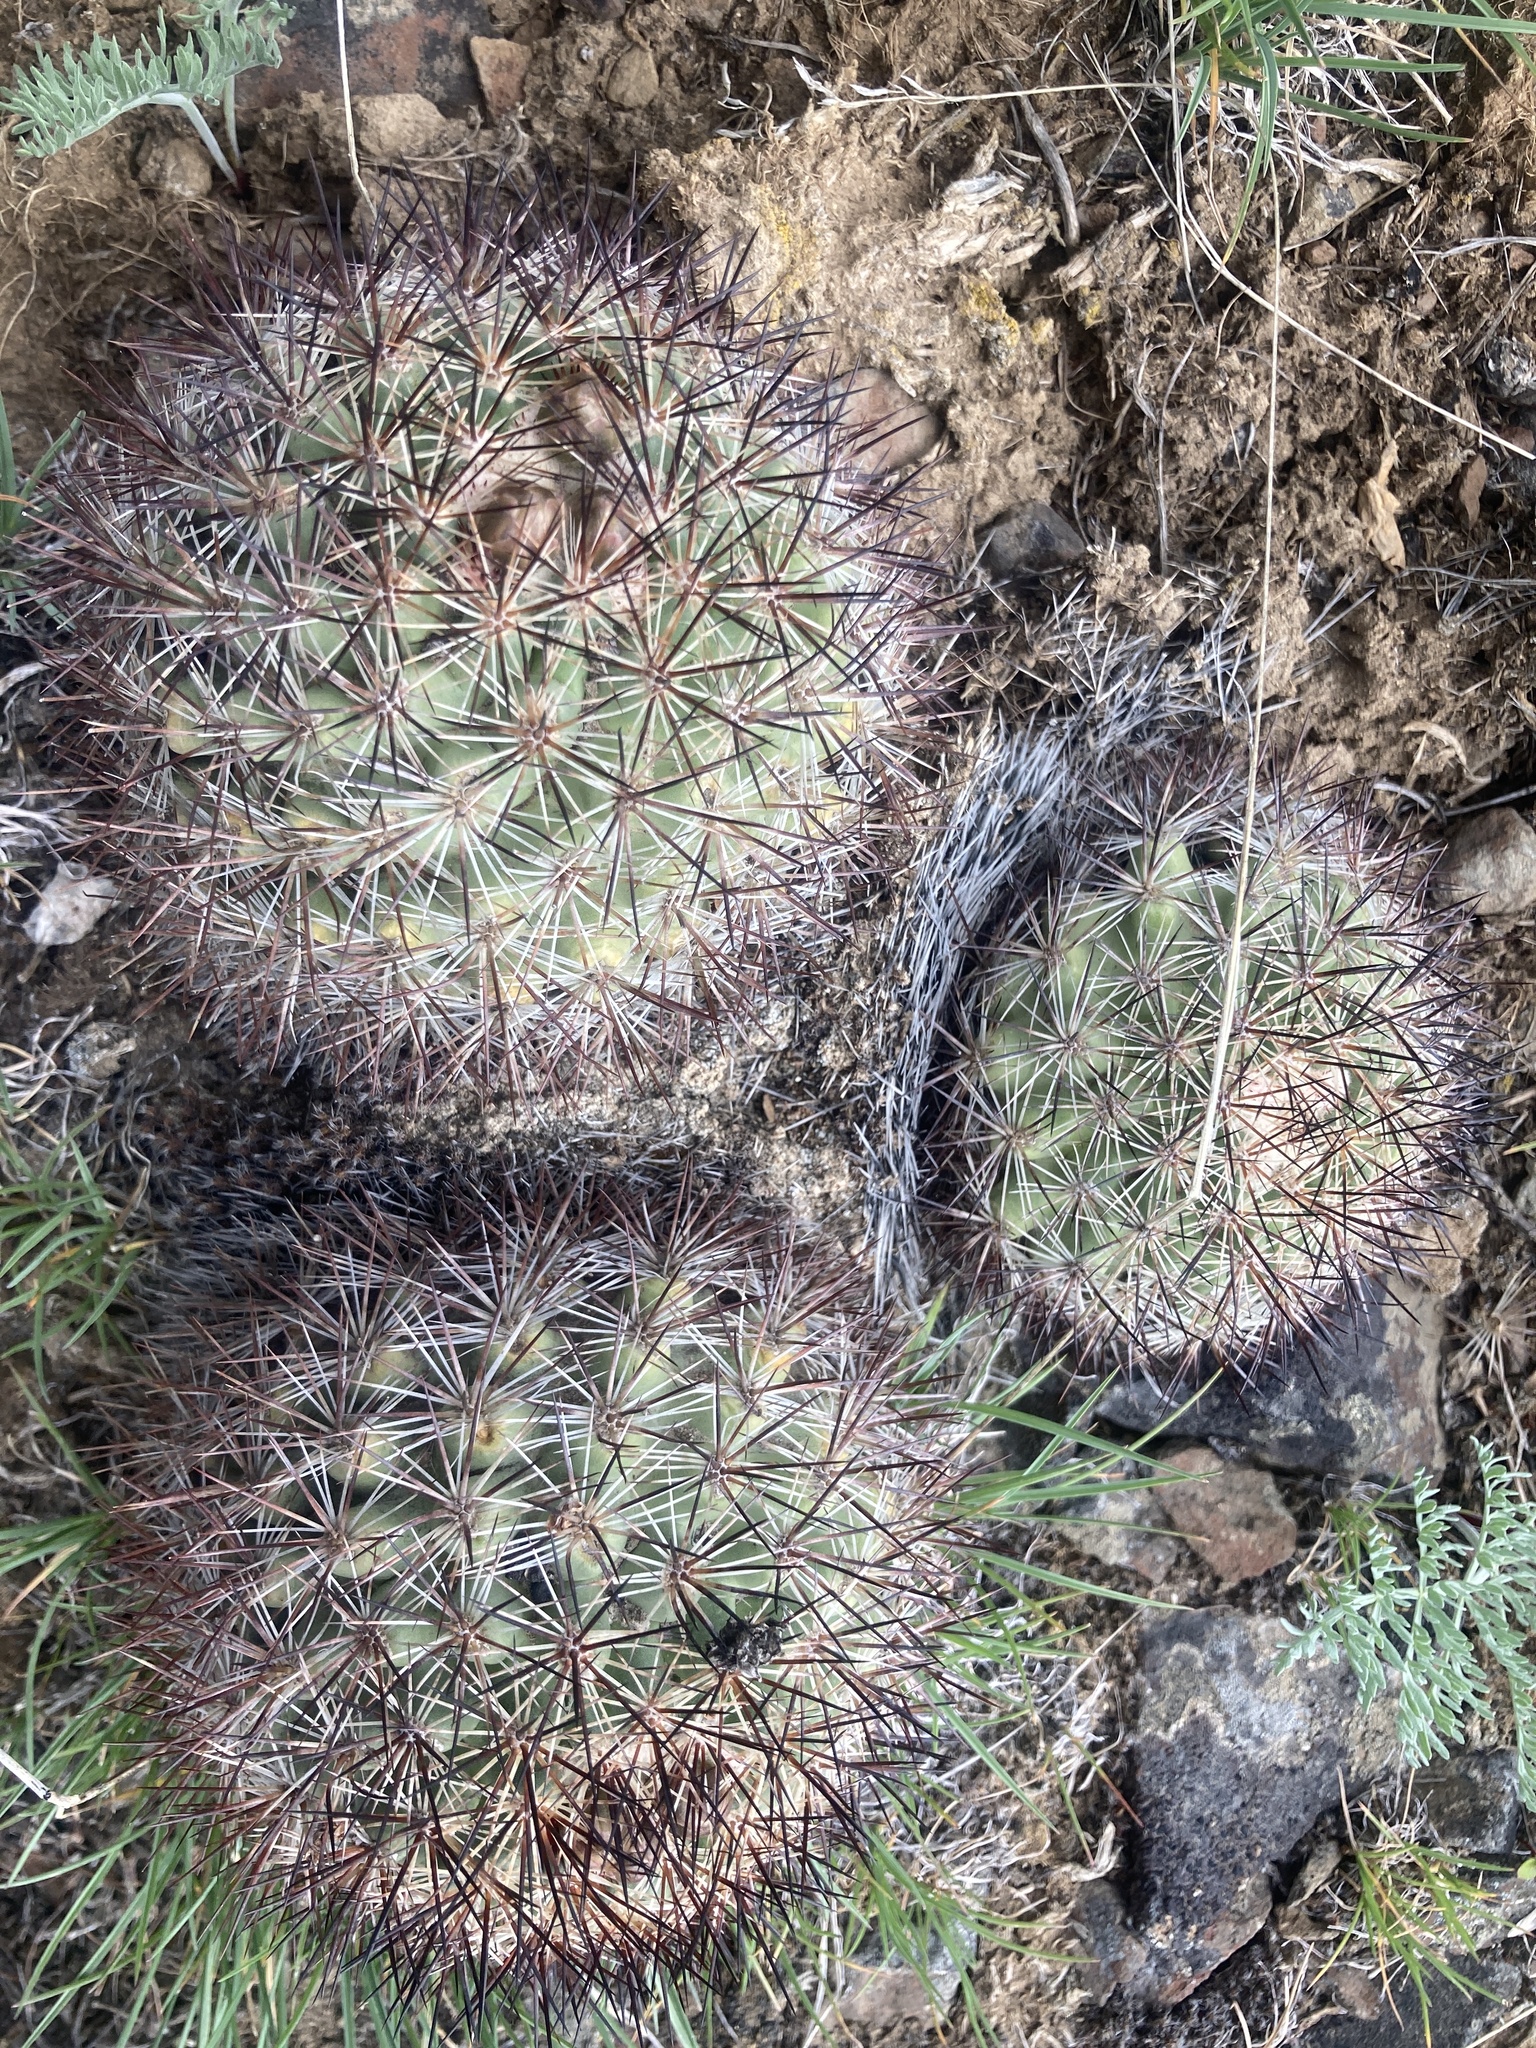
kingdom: Plantae
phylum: Tracheophyta
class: Magnoliopsida
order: Caryophyllales
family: Cactaceae
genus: Pediocactus
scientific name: Pediocactus nigrispinus
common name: Simpson's hedgehog cactus
